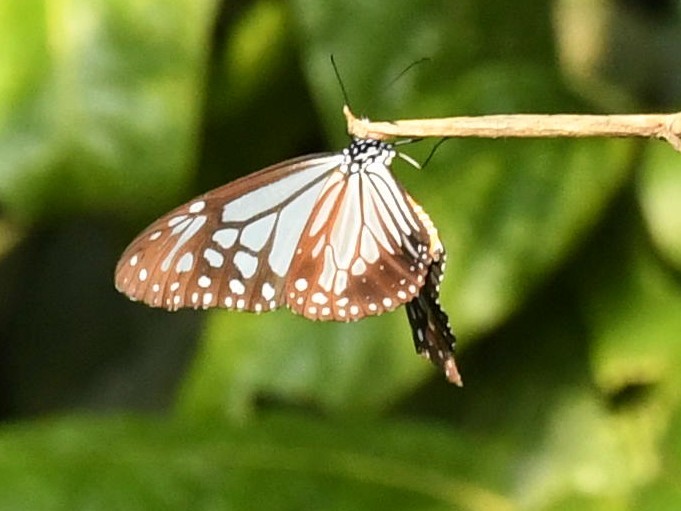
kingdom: Animalia
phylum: Arthropoda
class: Insecta
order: Lepidoptera
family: Nymphalidae
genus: Parantica
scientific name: Parantica sita
